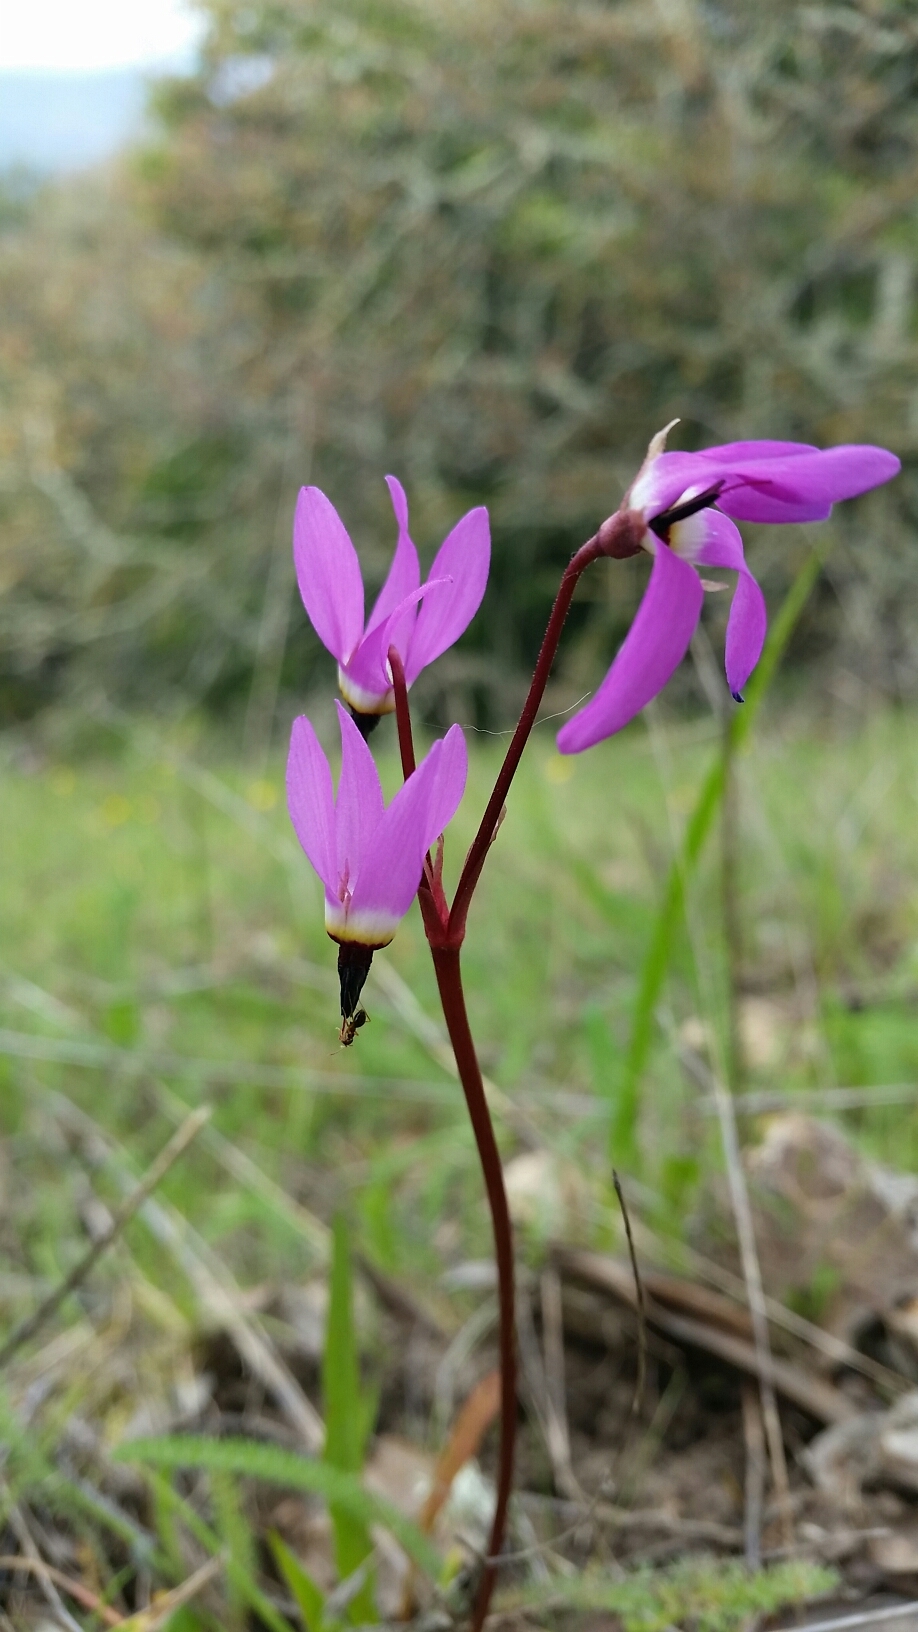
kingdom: Plantae
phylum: Tracheophyta
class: Magnoliopsida
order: Ericales
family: Primulaceae
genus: Dodecatheon
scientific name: Dodecatheon hendersonii
